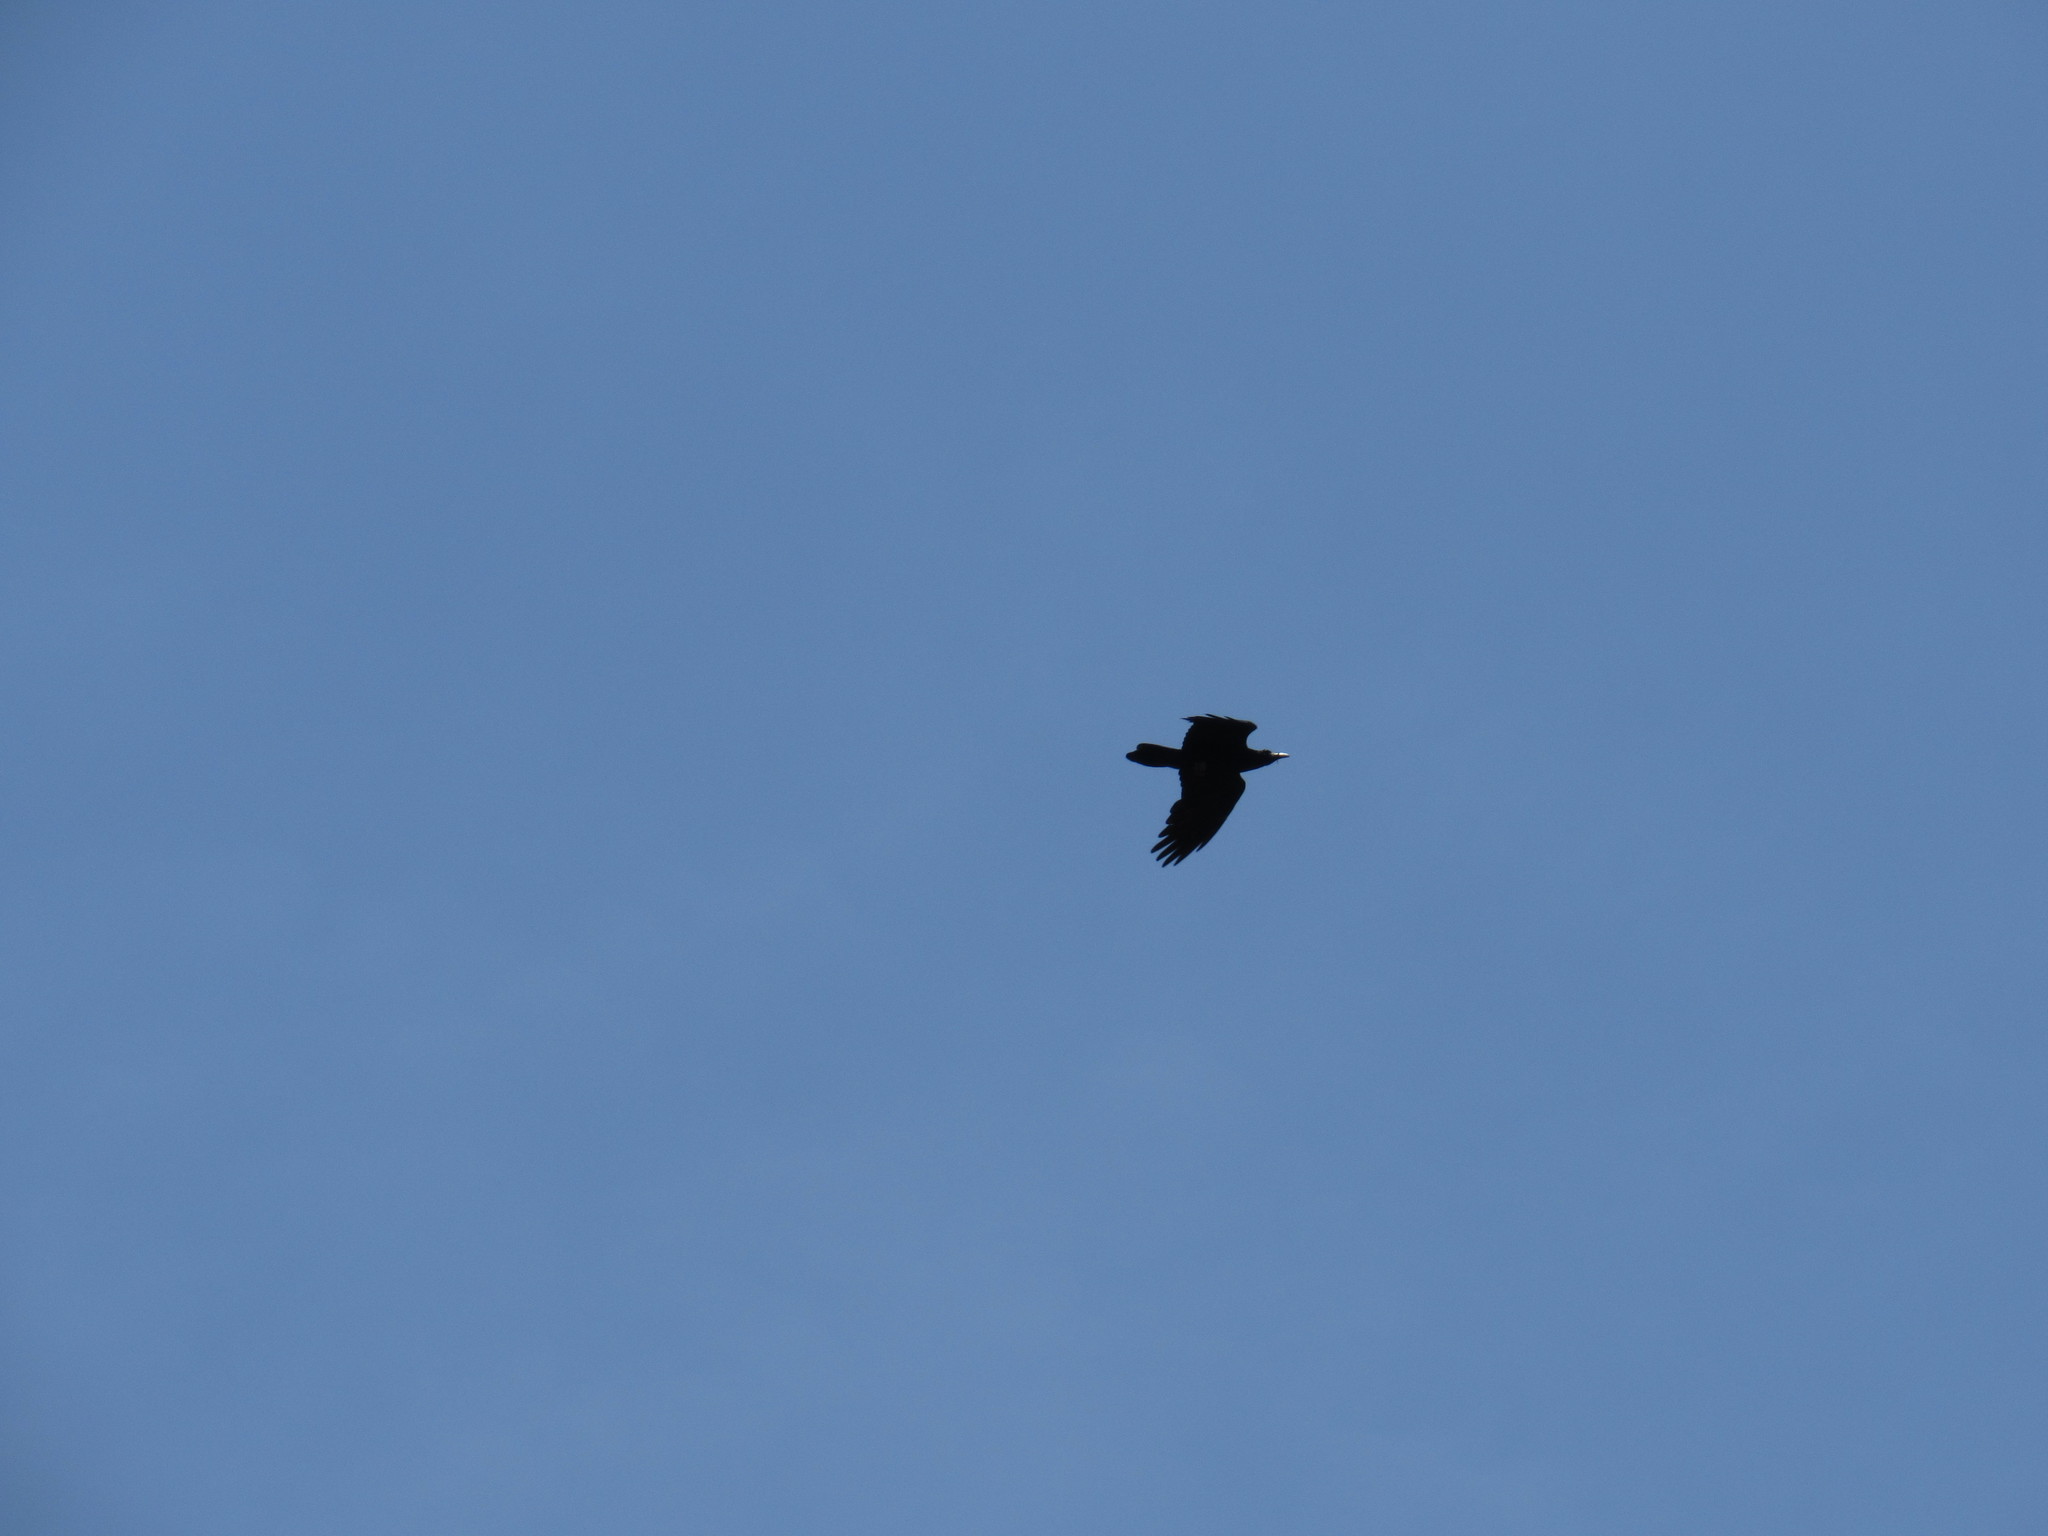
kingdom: Animalia
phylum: Chordata
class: Aves
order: Passeriformes
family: Corvidae
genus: Corvus
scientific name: Corvus corax
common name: Common raven
